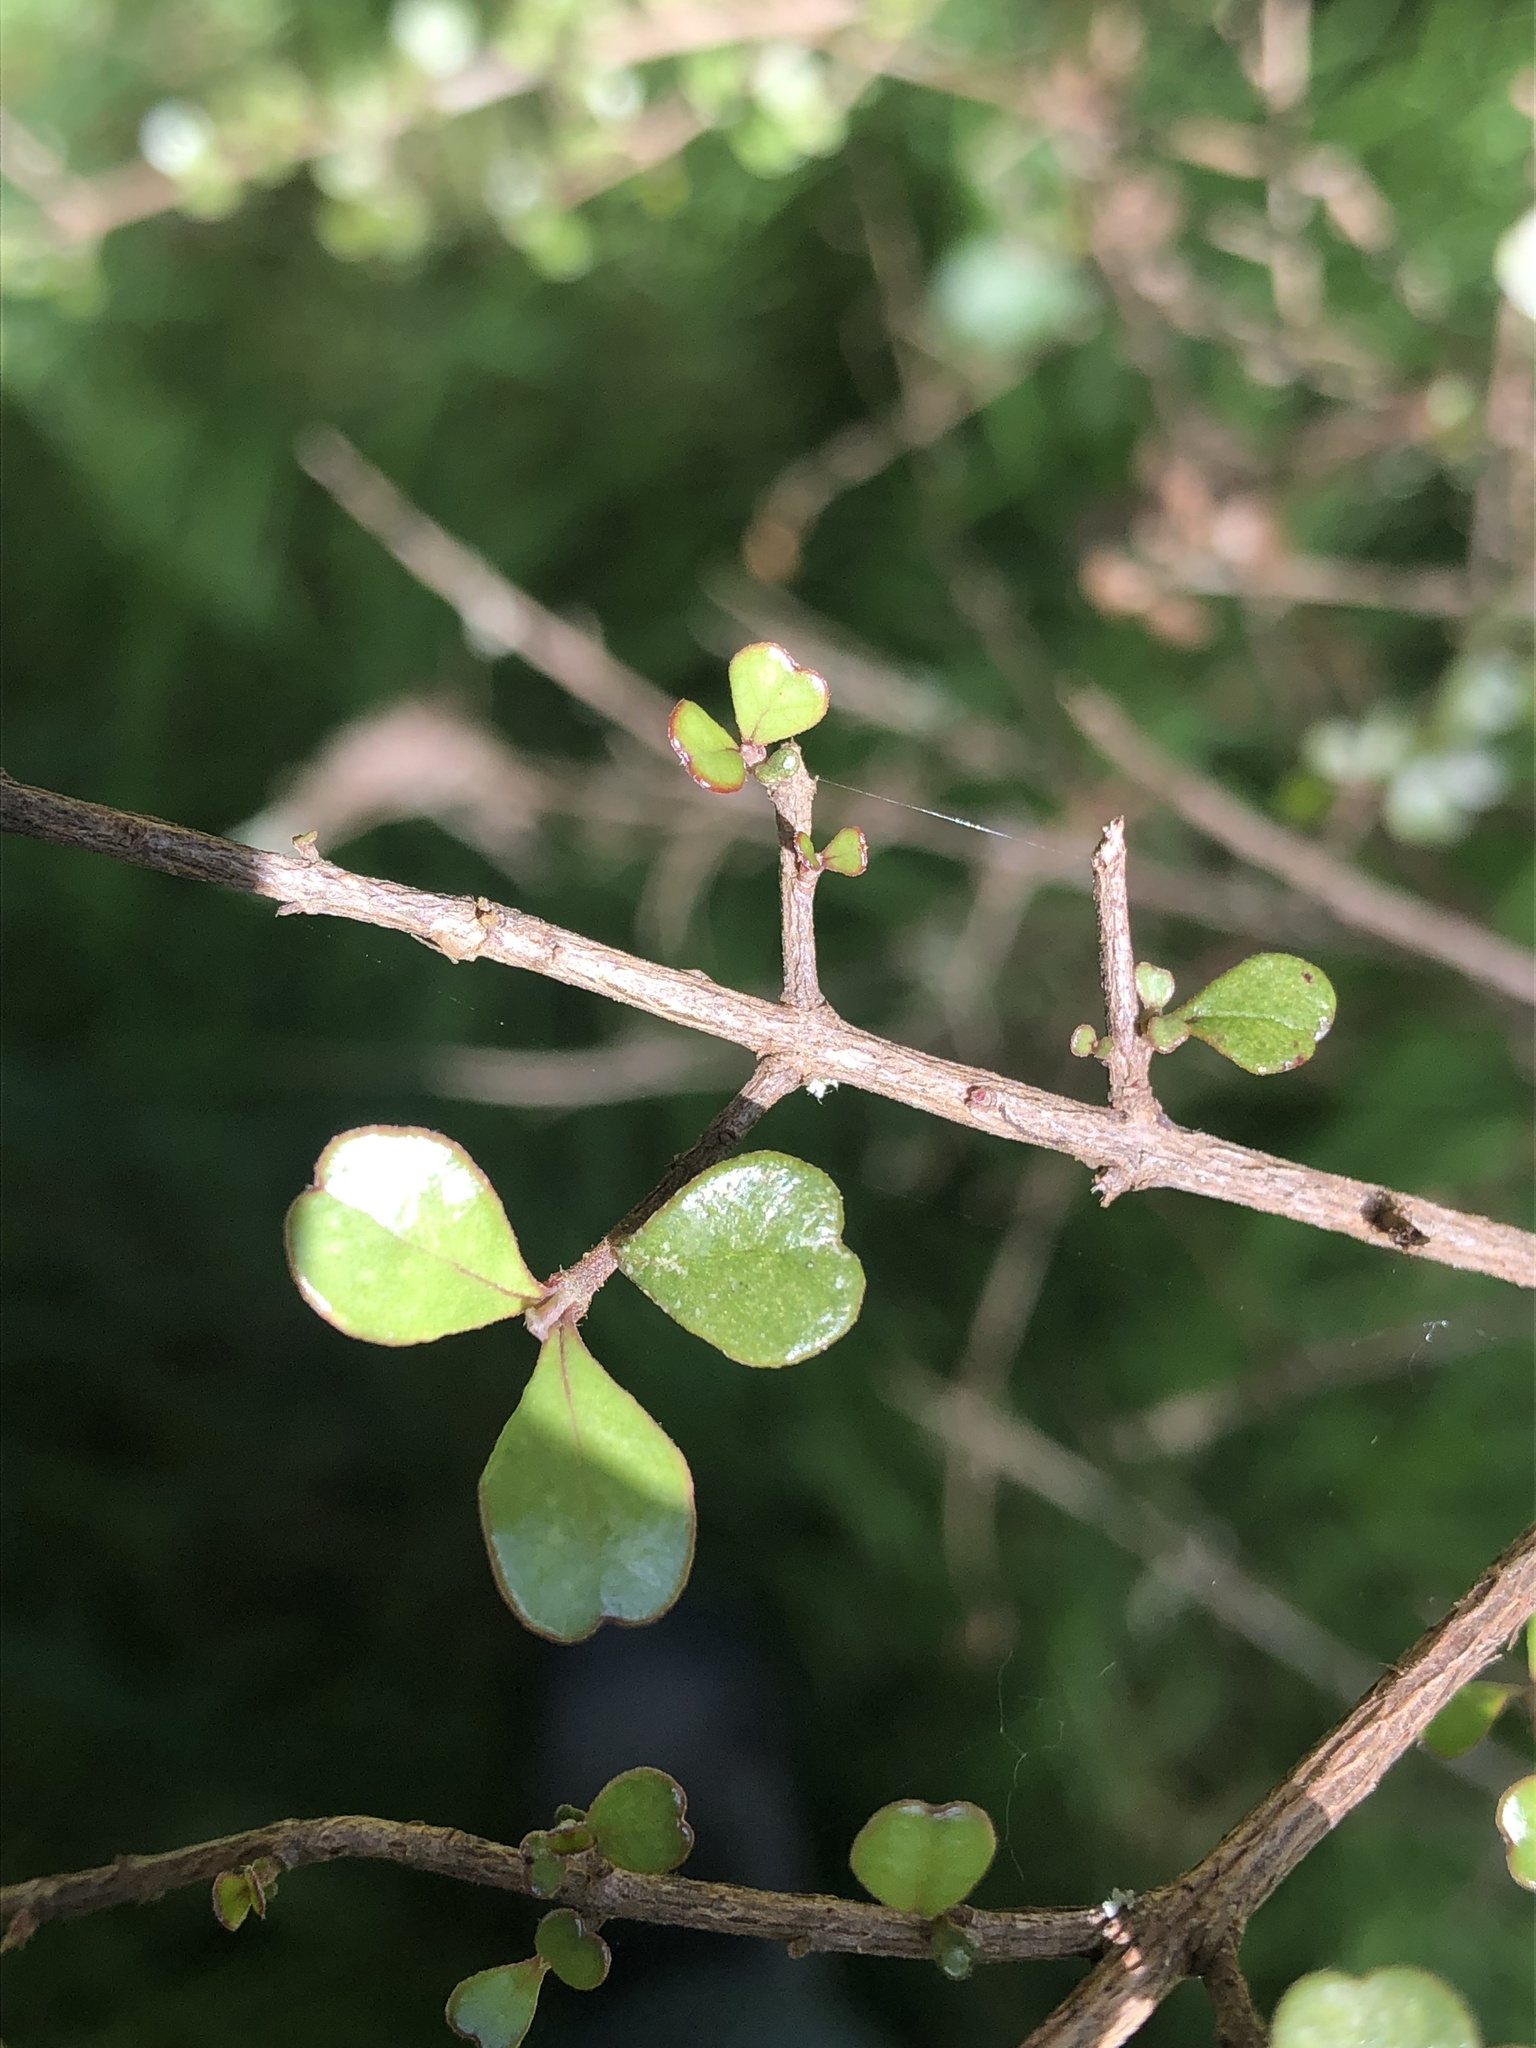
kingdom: Plantae
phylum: Tracheophyta
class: Magnoliopsida
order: Myrtales
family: Myrtaceae
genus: Lophomyrtus
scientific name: Lophomyrtus obcordata
